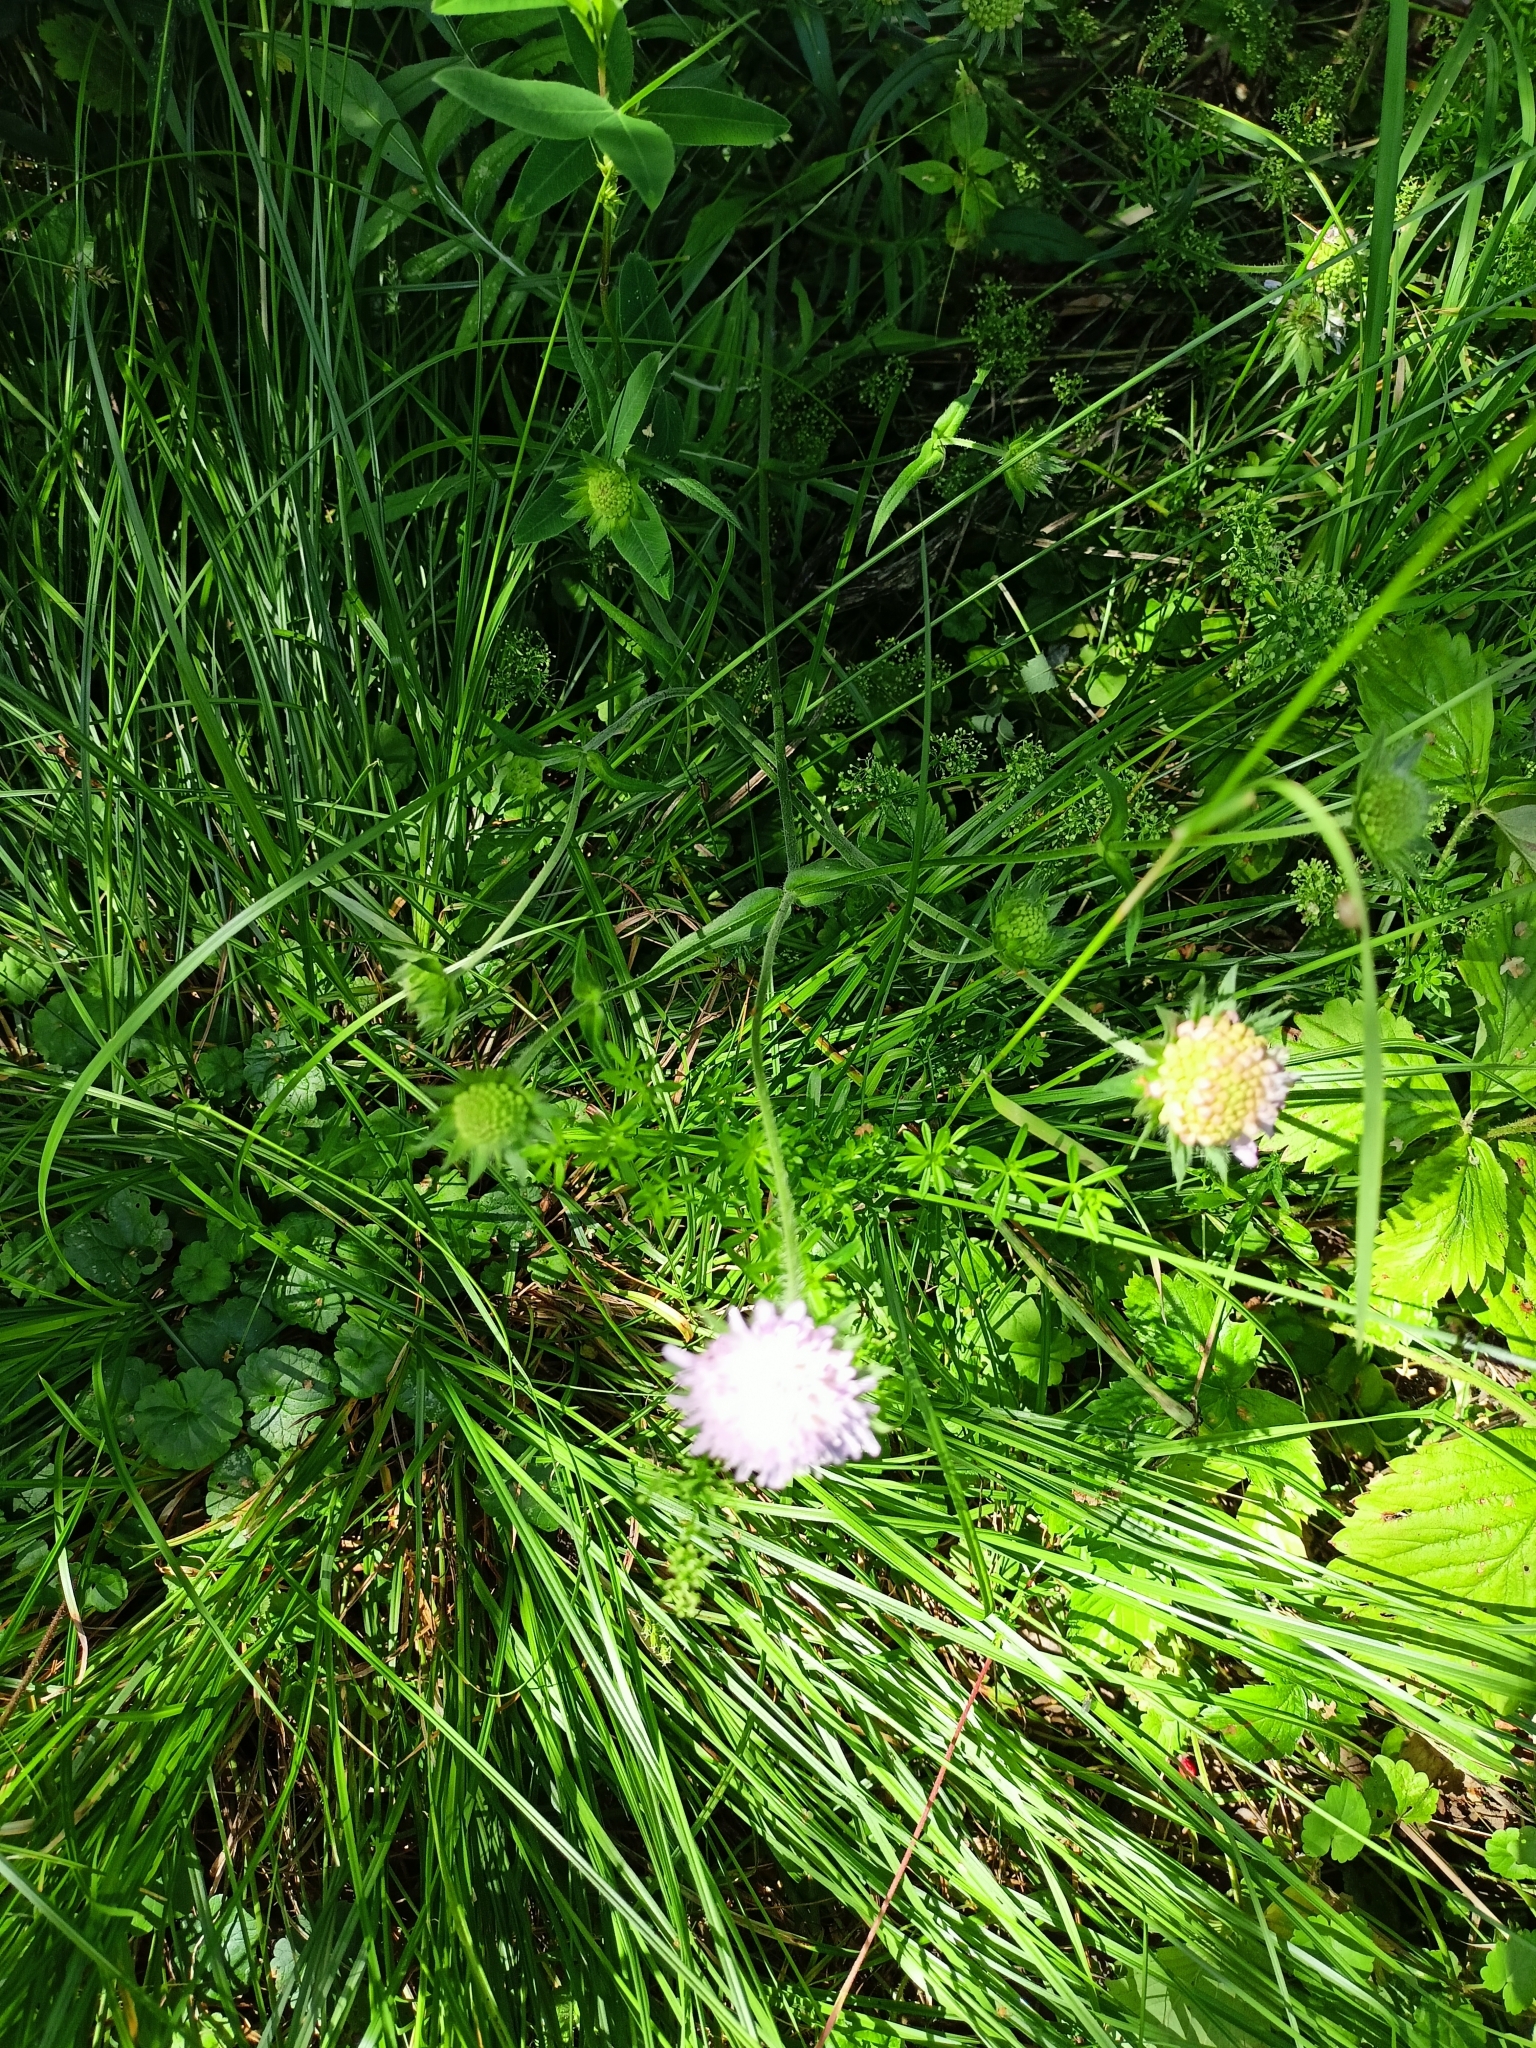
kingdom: Plantae
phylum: Tracheophyta
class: Magnoliopsida
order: Dipsacales
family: Caprifoliaceae
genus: Knautia
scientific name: Knautia arvensis
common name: Field scabiosa
